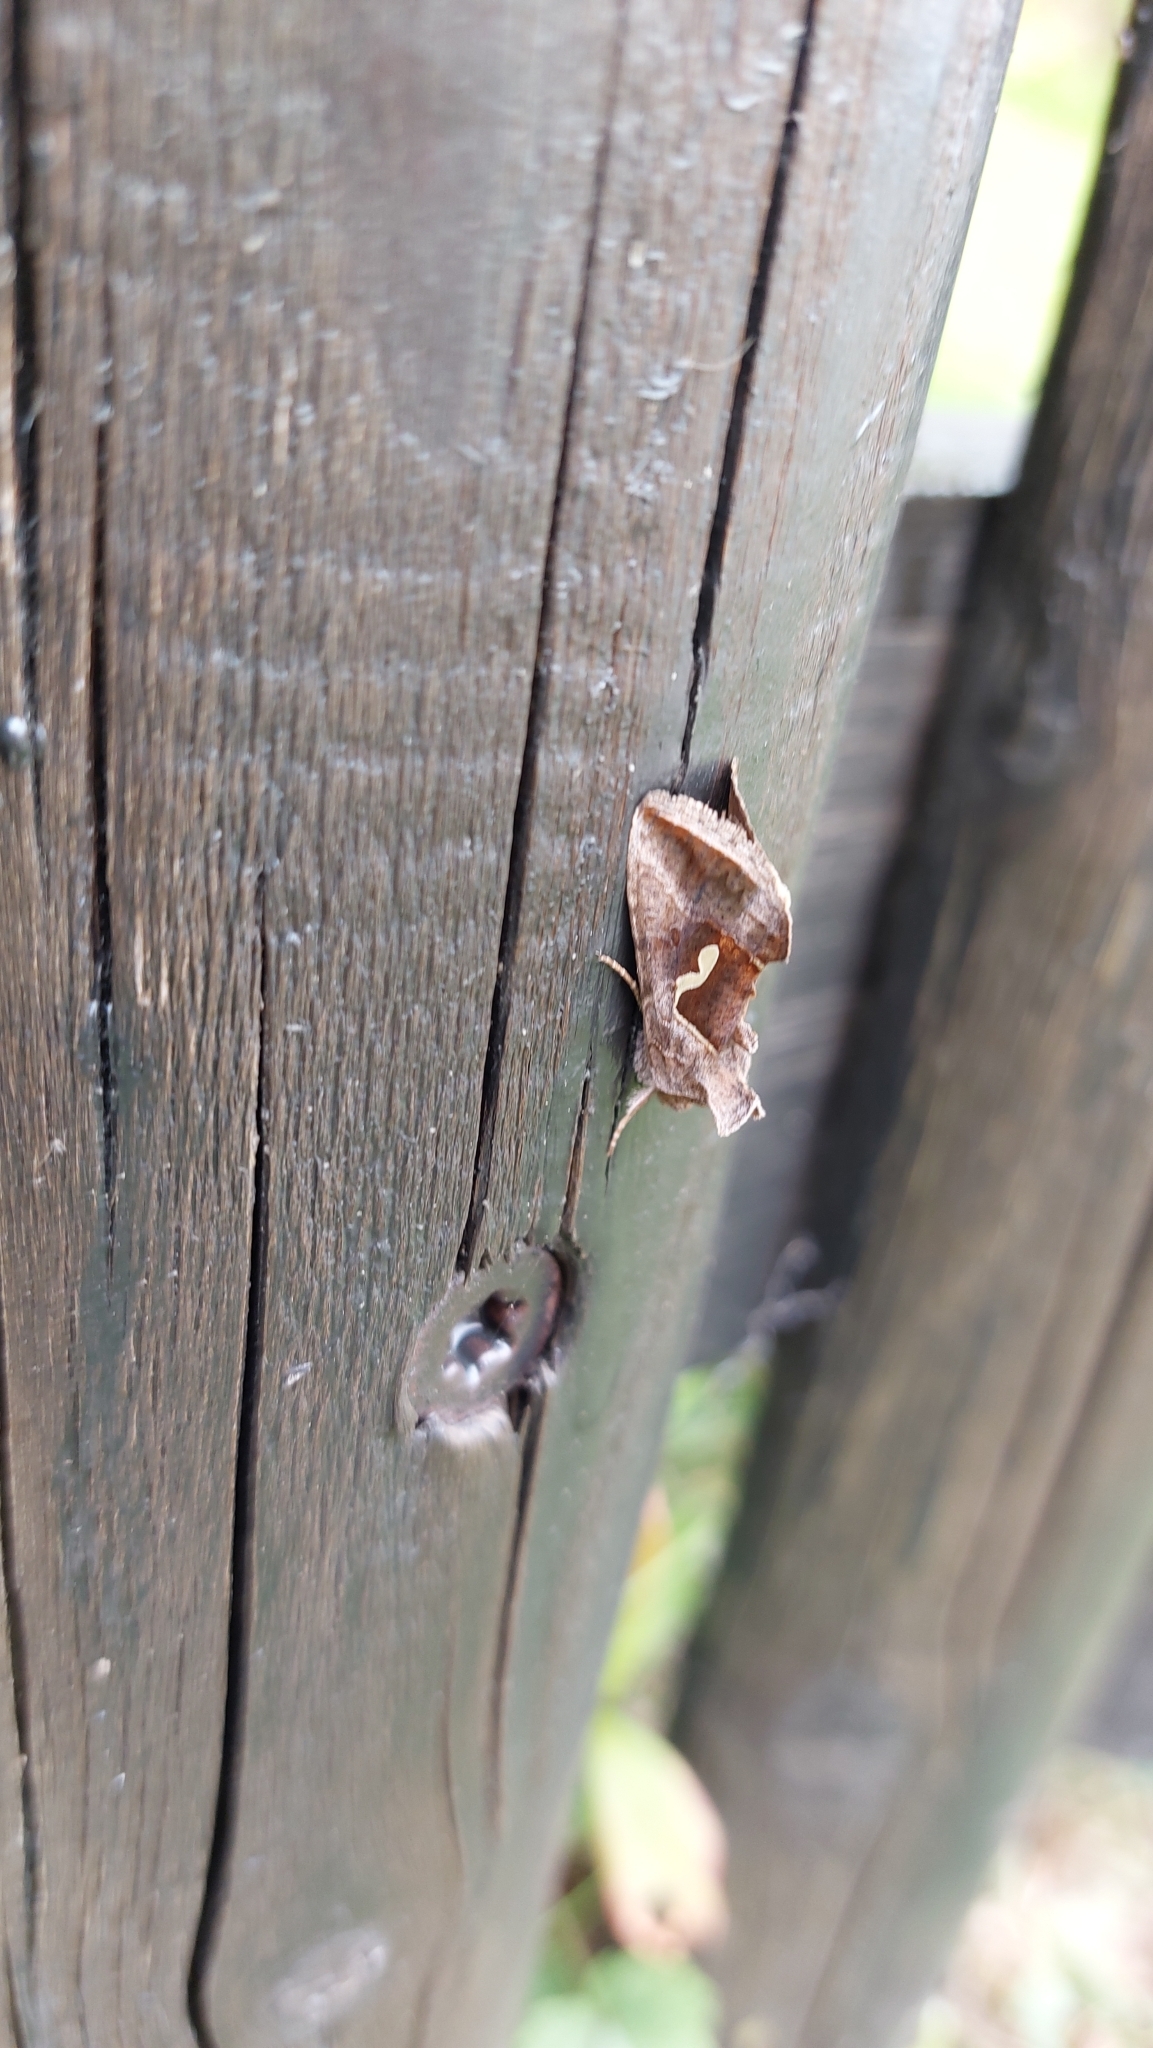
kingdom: Animalia
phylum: Arthropoda
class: Insecta
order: Lepidoptera
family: Noctuidae
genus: Macdunnoughia
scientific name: Macdunnoughia confusa
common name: Dewick's plusia
